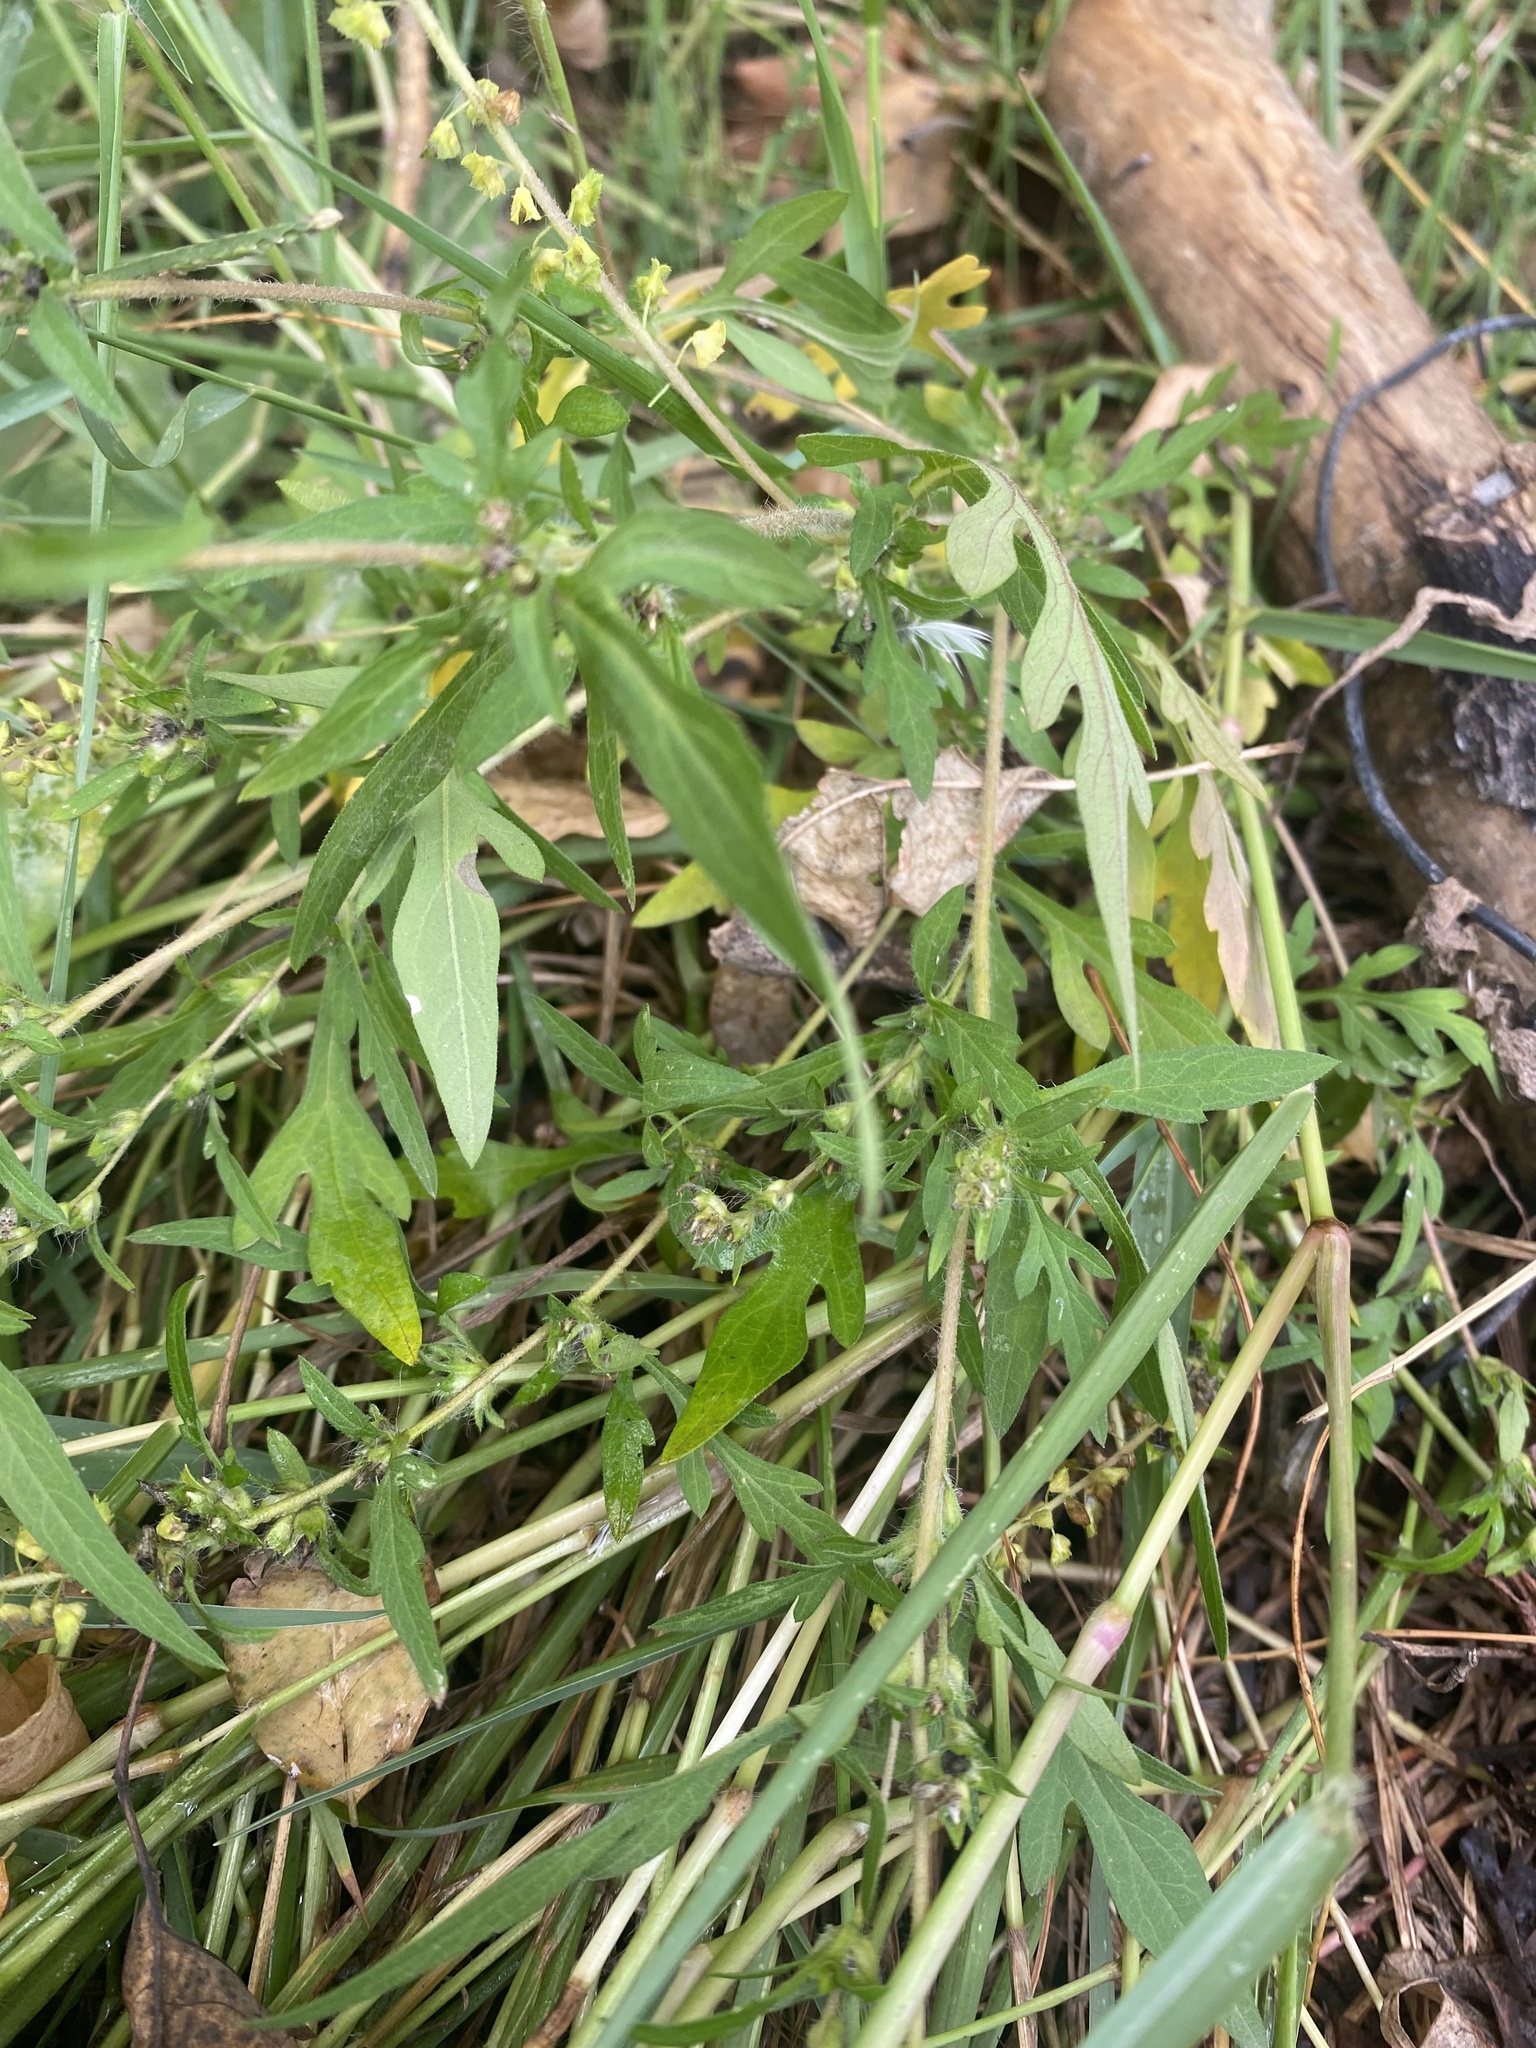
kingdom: Plantae
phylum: Tracheophyta
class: Magnoliopsida
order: Asterales
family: Asteraceae
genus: Ambrosia
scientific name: Ambrosia artemisiifolia
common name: Annual ragweed
